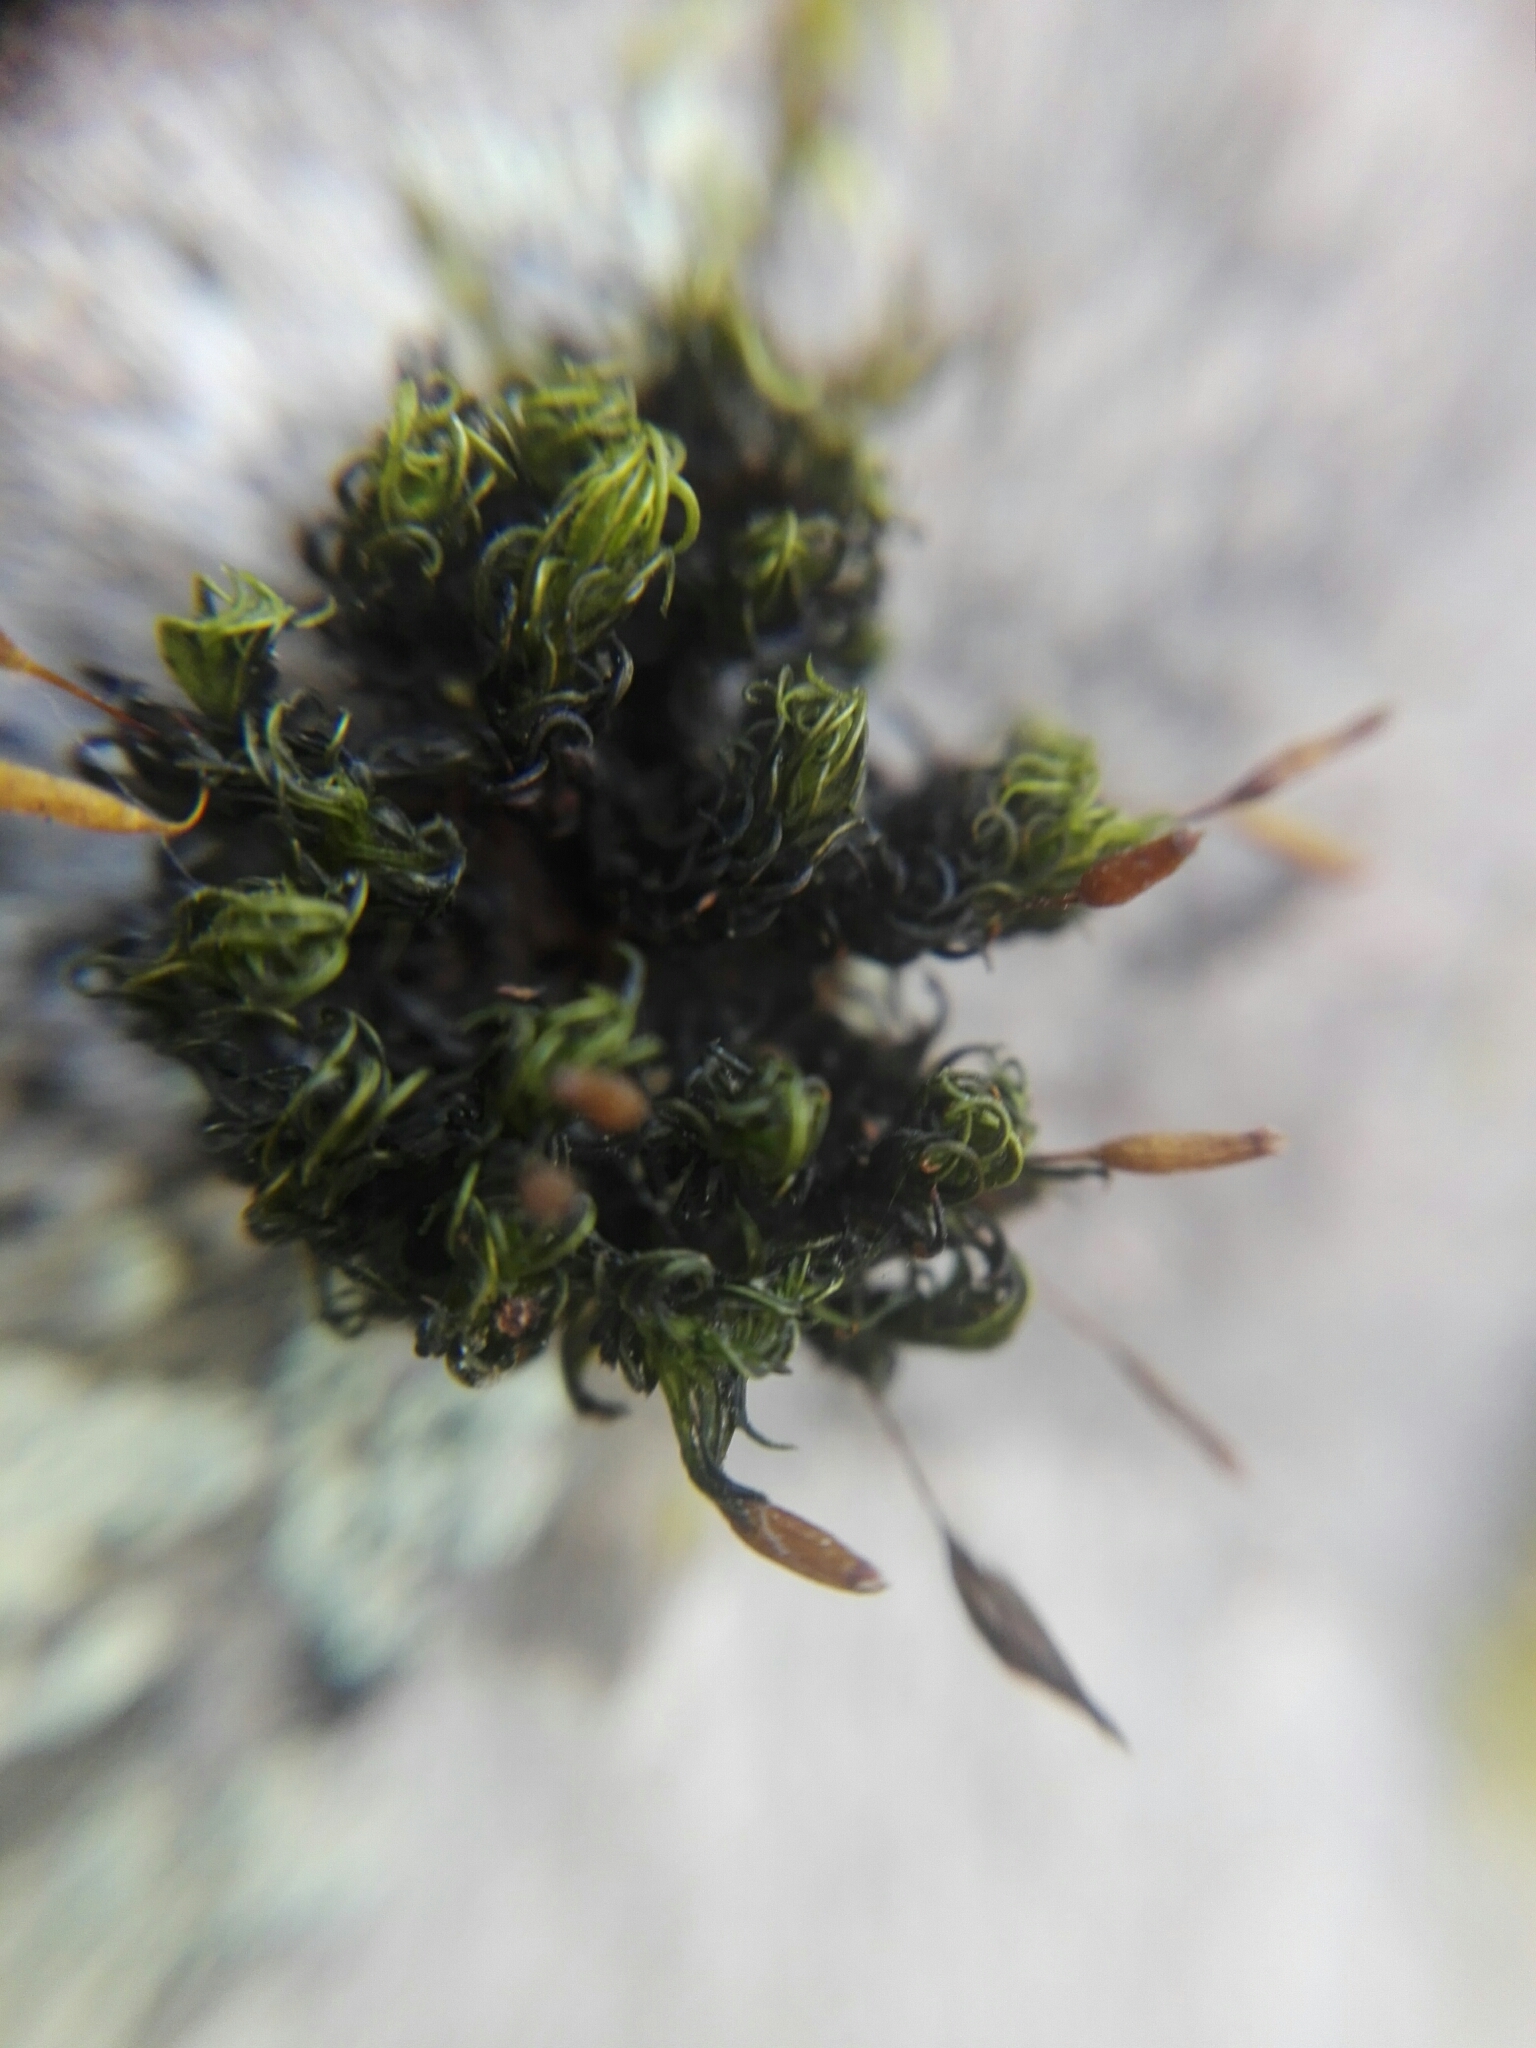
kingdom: Plantae
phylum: Bryophyta
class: Bryopsida
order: Orthotrichales
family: Orthotrichaceae
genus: Ulota
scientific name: Ulota crispa
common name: Crisped pincushion moss
